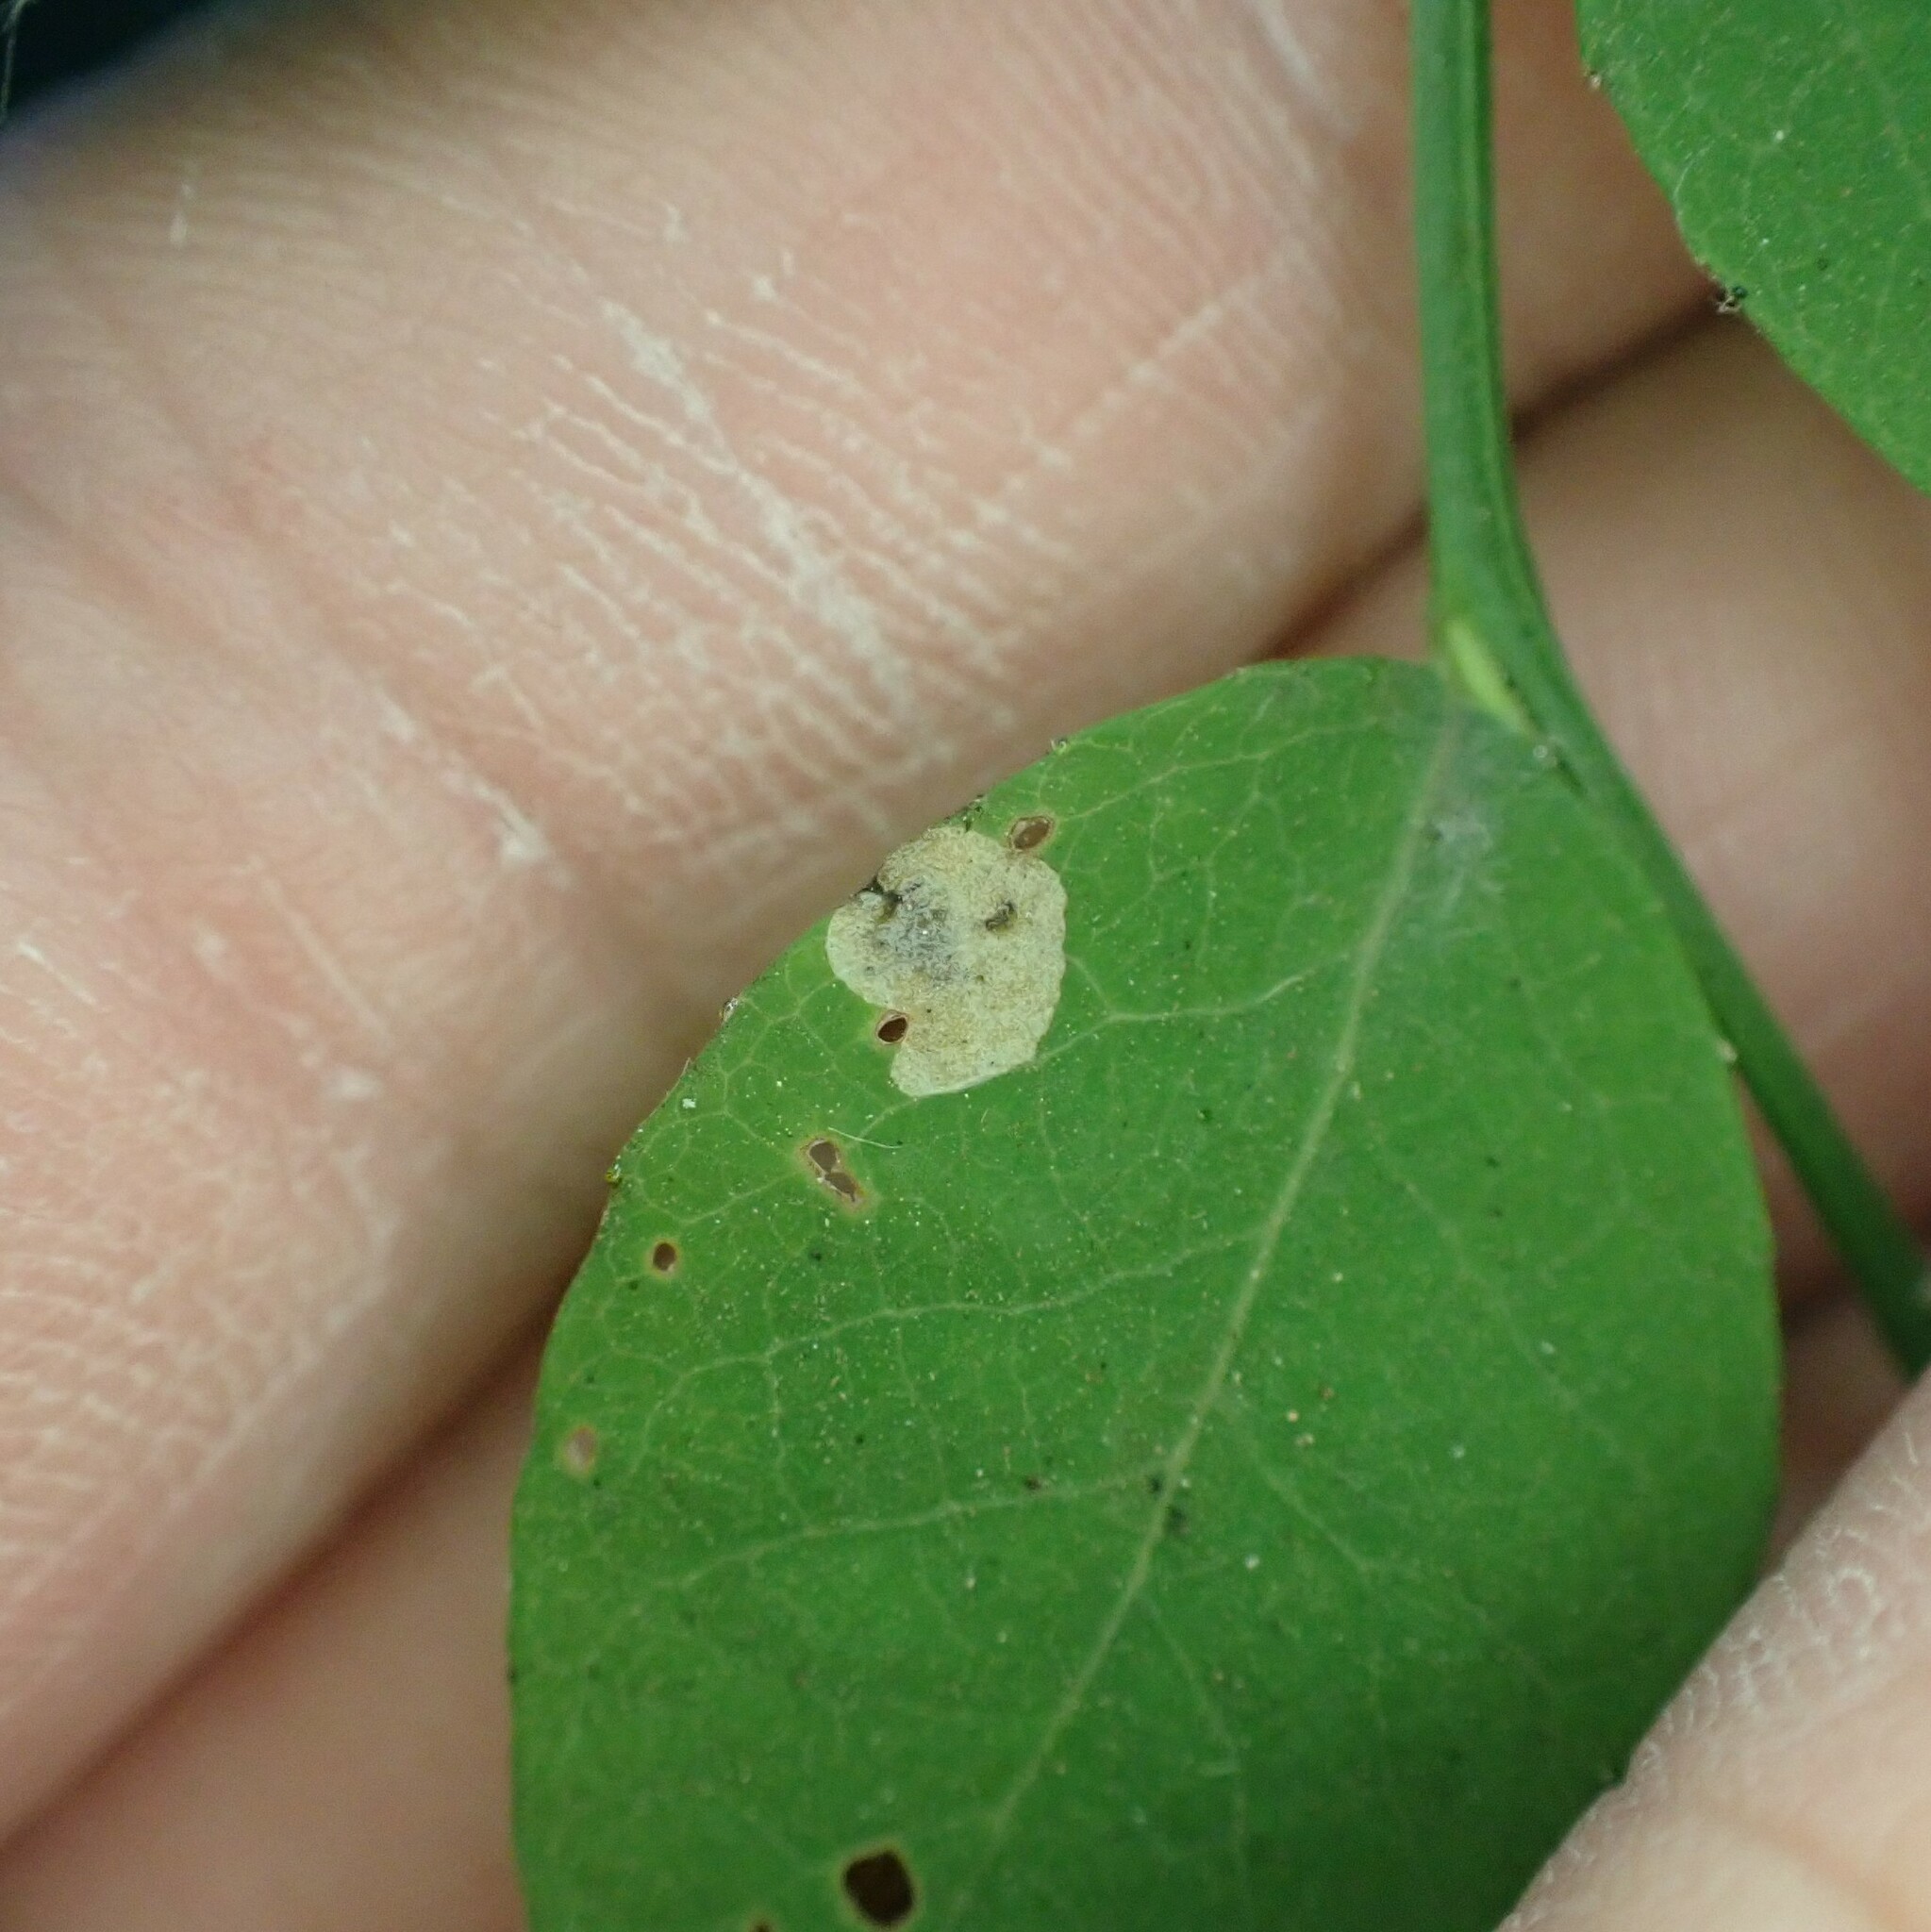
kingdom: Animalia
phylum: Arthropoda
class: Insecta
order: Hymenoptera
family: Tenthredinidae
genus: Scolioneura
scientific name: Scolioneura vaccinii
